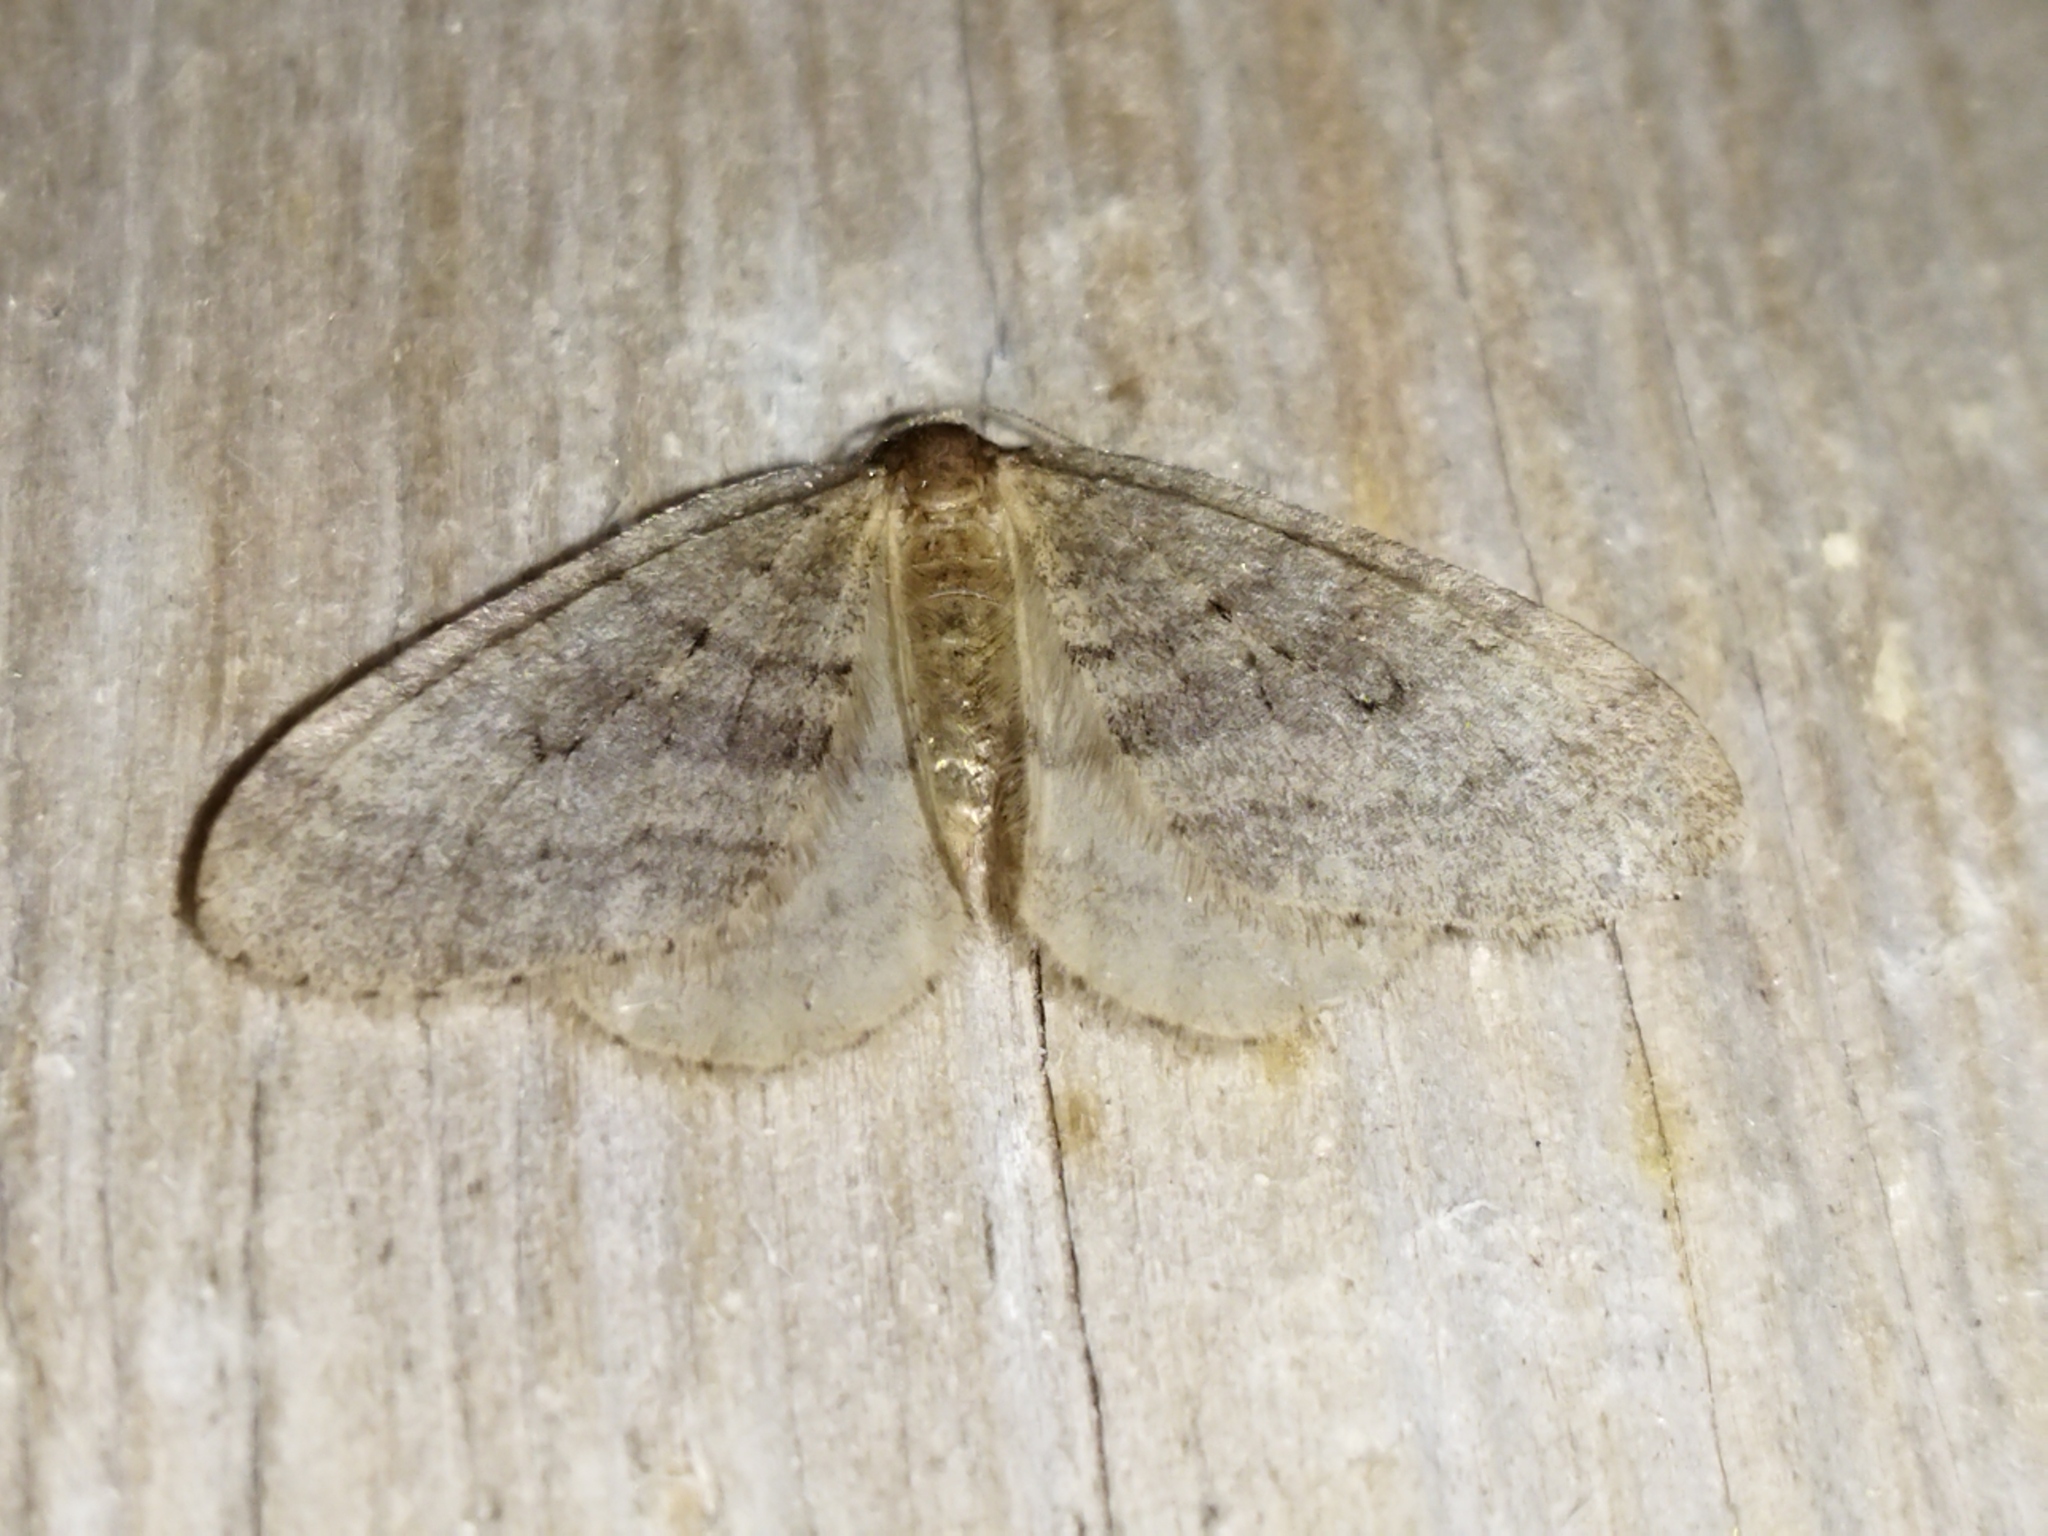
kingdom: Animalia
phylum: Arthropoda
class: Insecta
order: Lepidoptera
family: Geometridae
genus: Operophtera
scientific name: Operophtera brumata
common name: Winter moth
